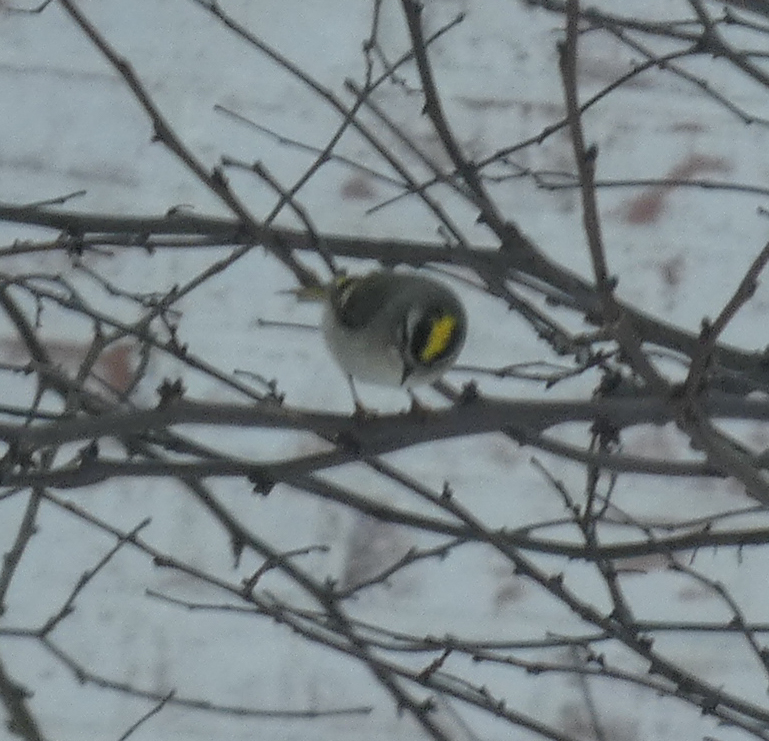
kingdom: Animalia
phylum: Chordata
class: Aves
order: Passeriformes
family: Regulidae
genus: Regulus
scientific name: Regulus satrapa
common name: Golden-crowned kinglet
